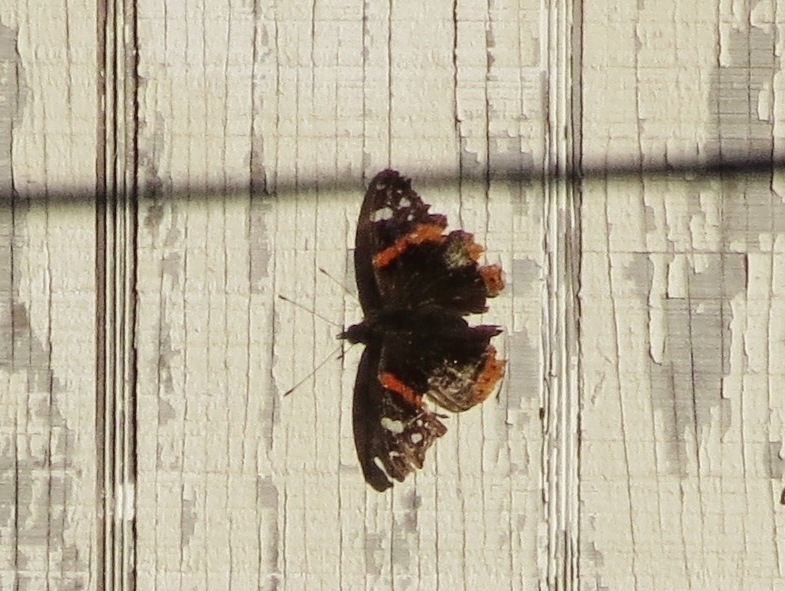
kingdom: Animalia
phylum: Arthropoda
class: Insecta
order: Lepidoptera
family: Nymphalidae
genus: Vanessa
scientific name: Vanessa atalanta
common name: Red admiral
